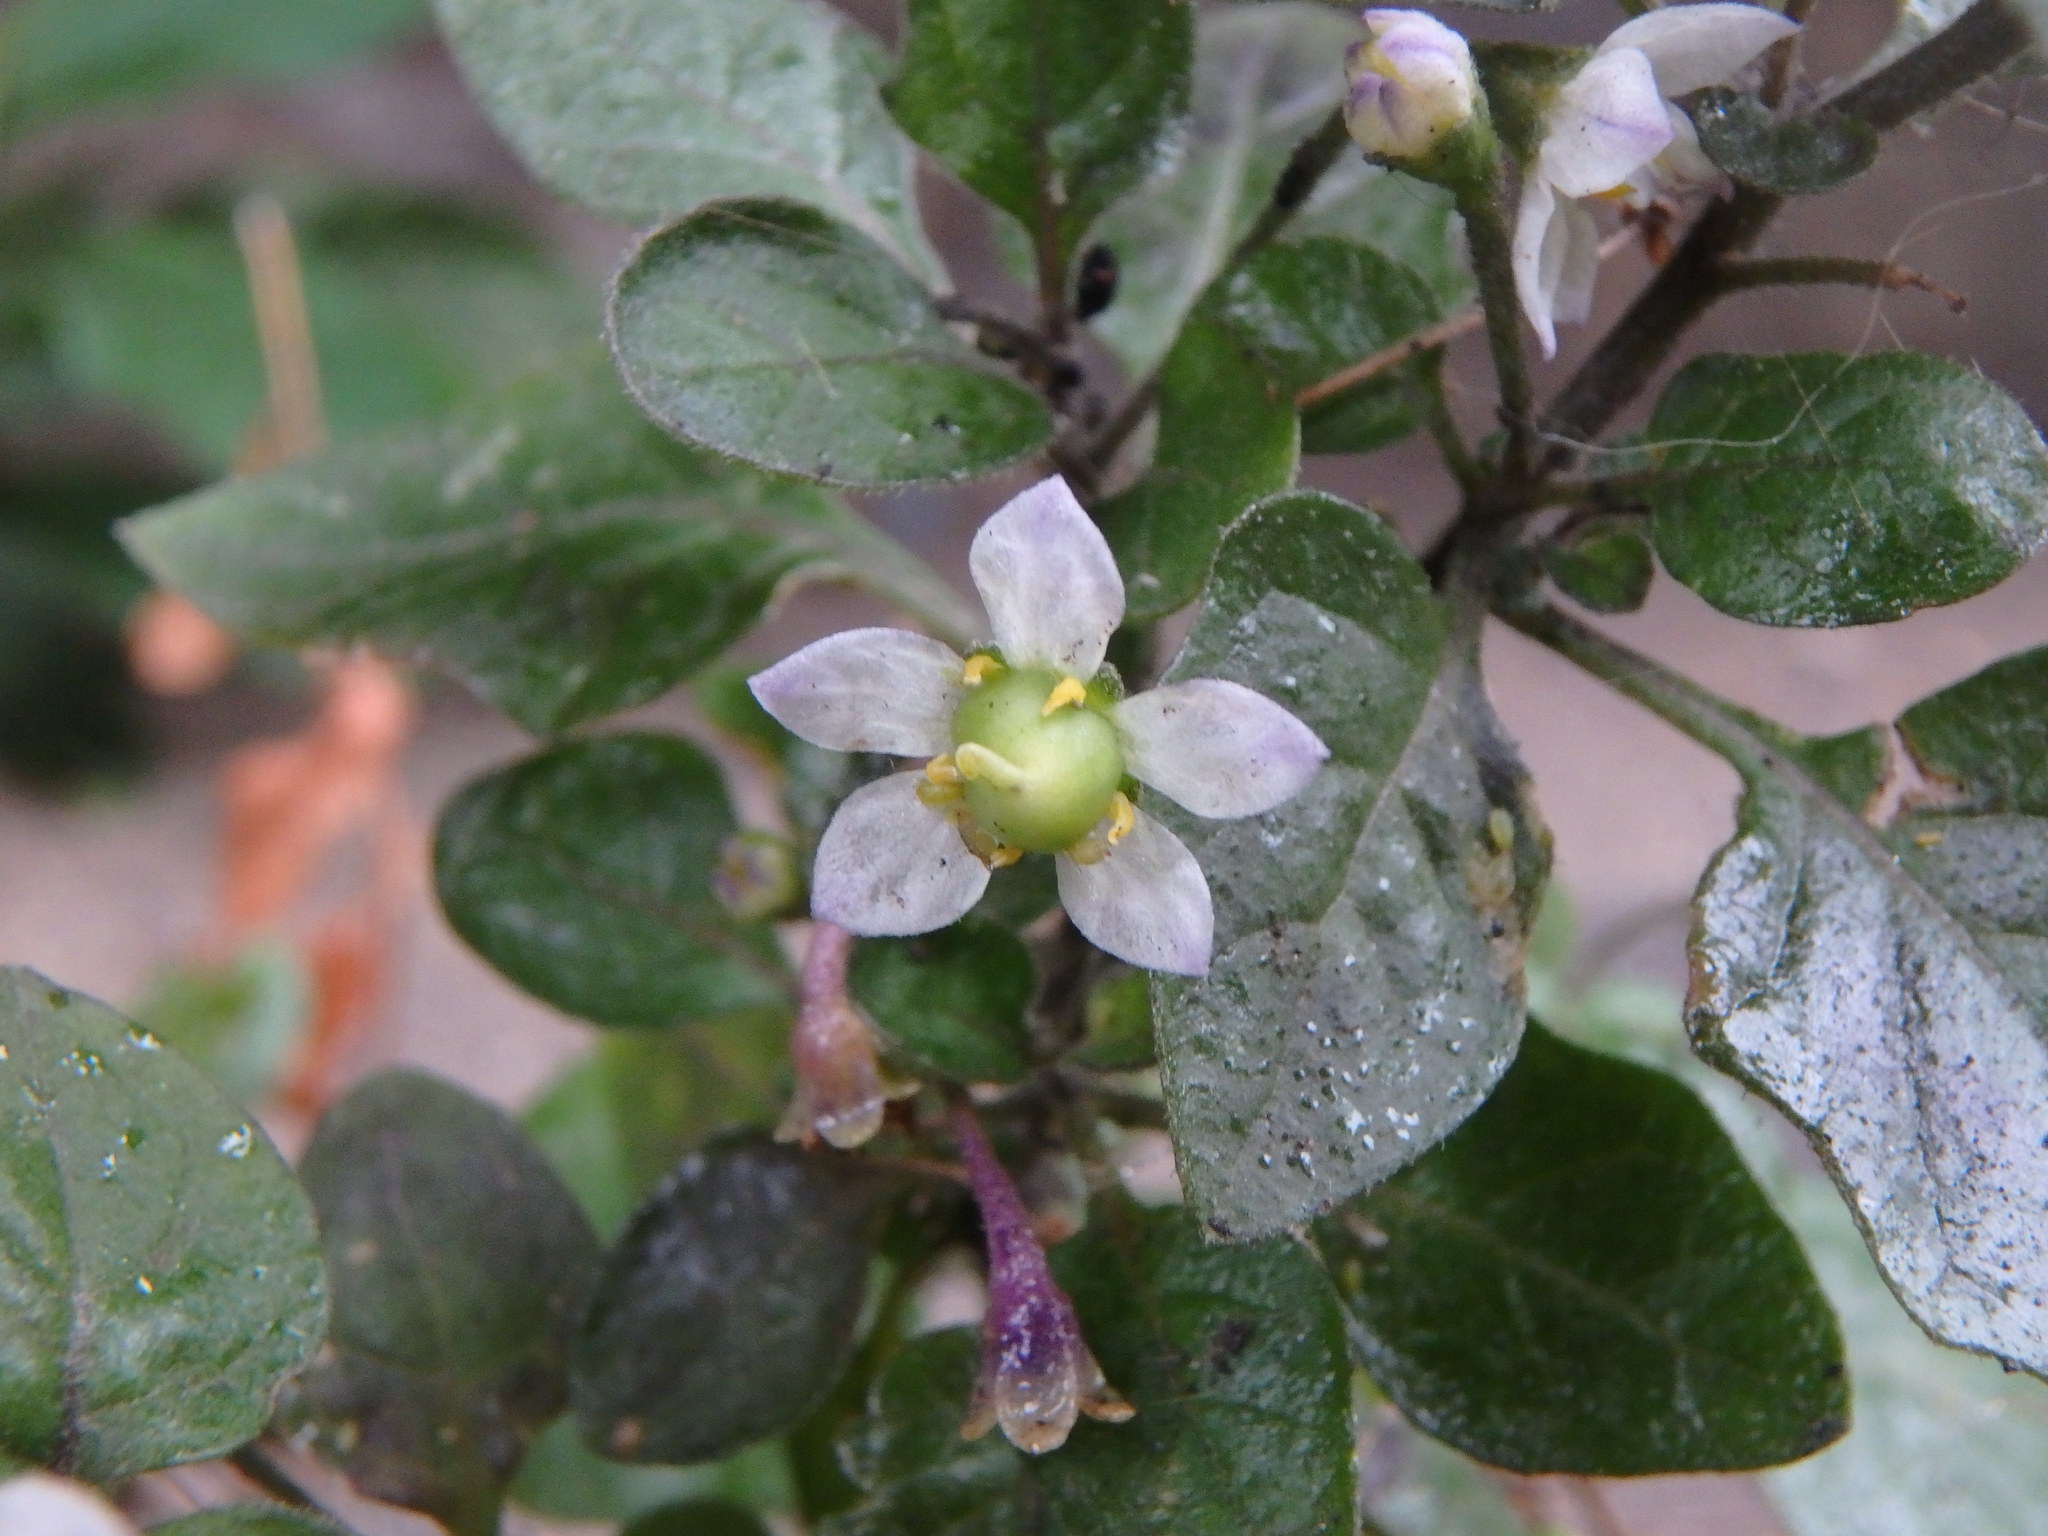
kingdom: Plantae
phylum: Tracheophyta
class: Magnoliopsida
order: Solanales
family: Solanaceae
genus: Solanum
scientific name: Solanum nigrum
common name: Black nightshade
